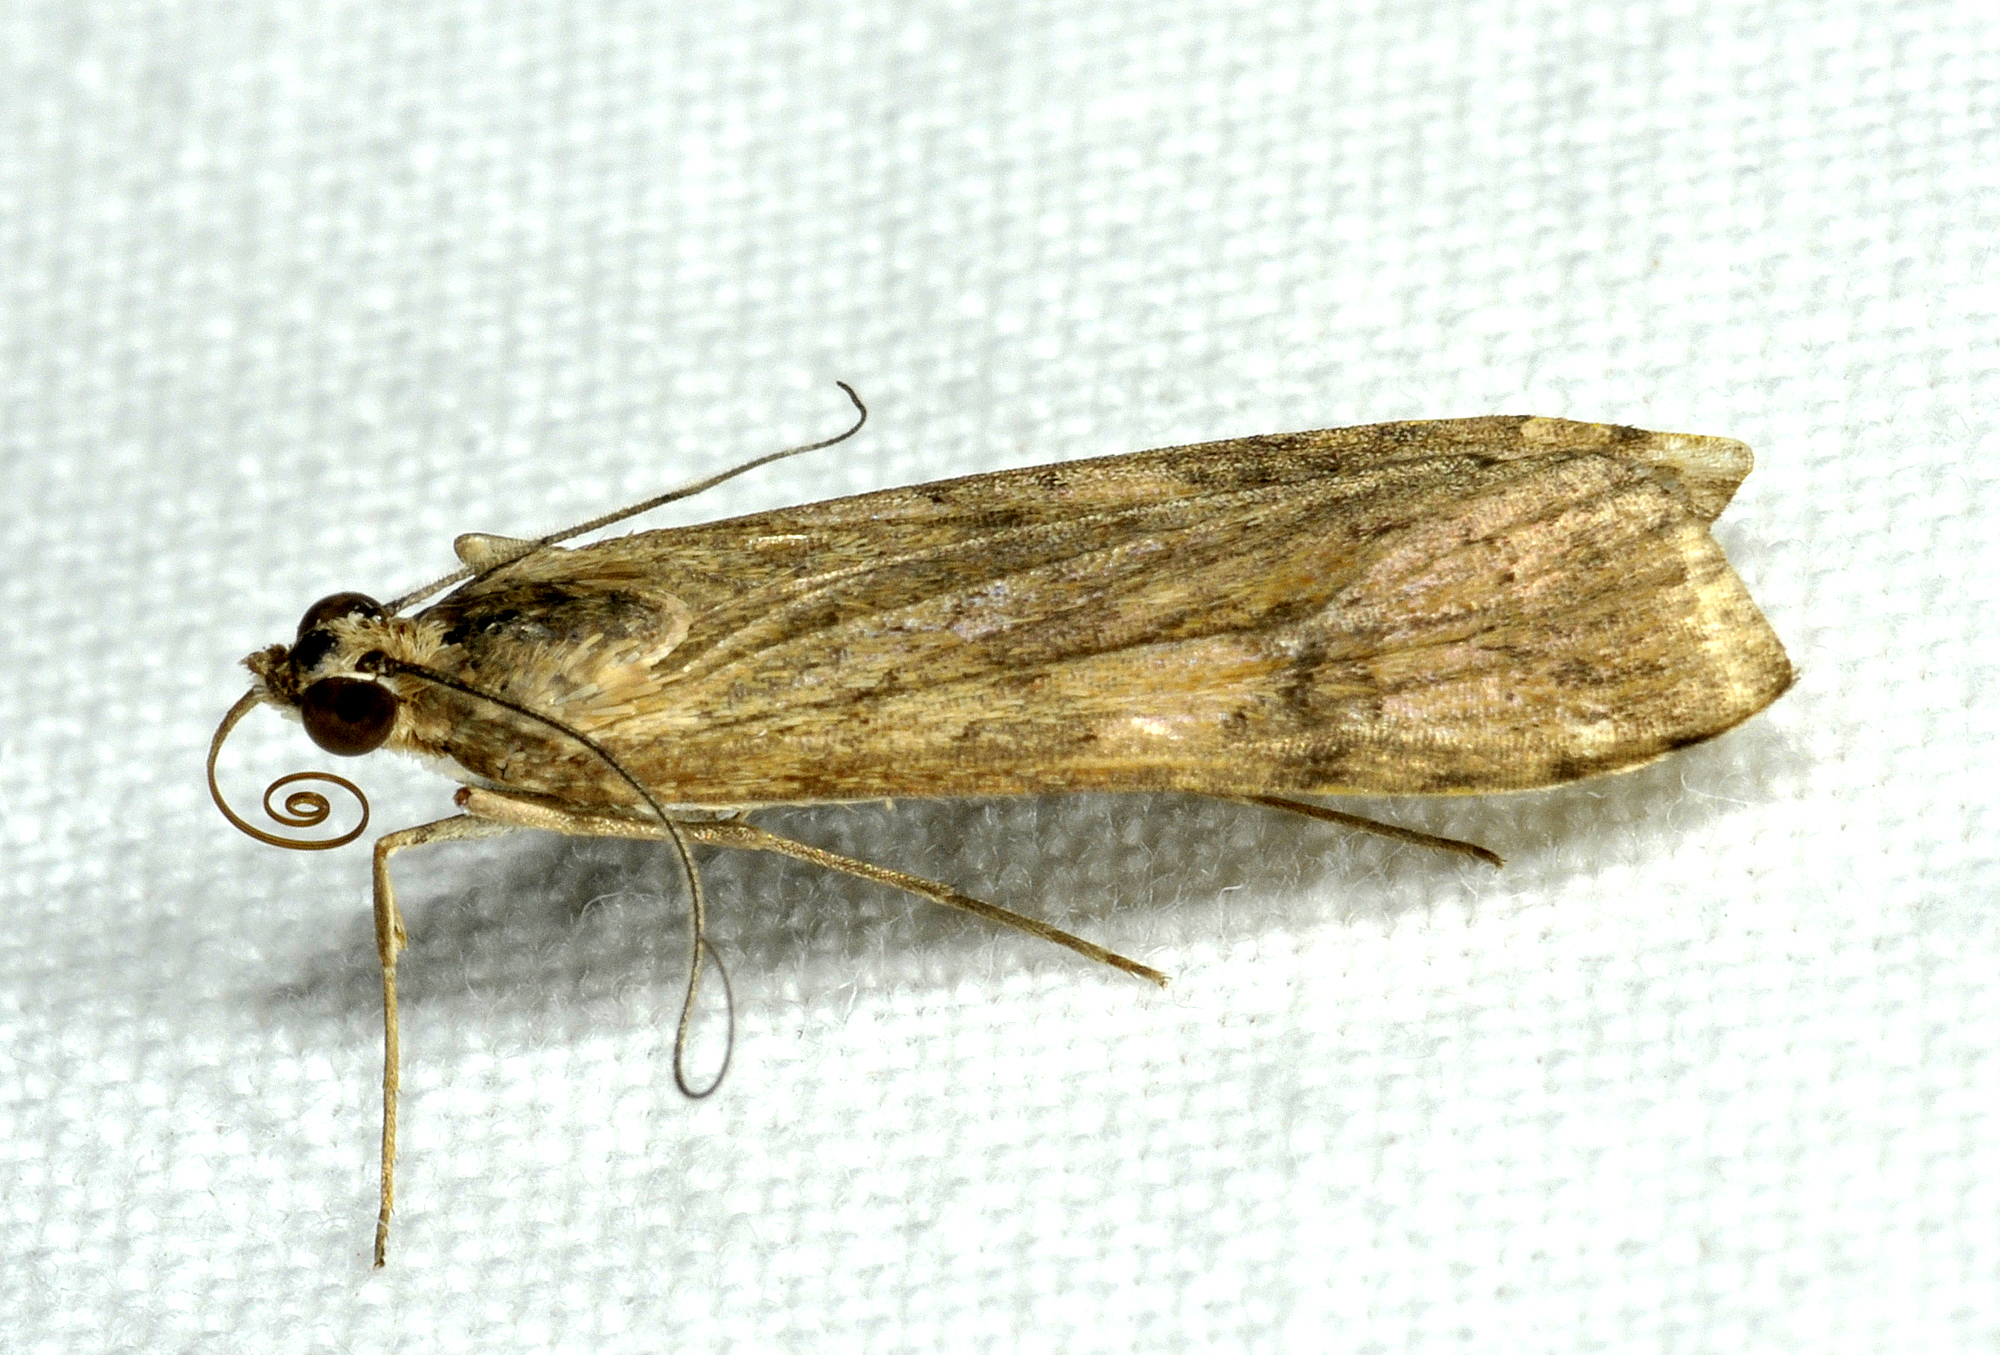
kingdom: Animalia
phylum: Arthropoda
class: Insecta
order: Lepidoptera
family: Crambidae
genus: Nomophila
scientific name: Nomophila noctuella
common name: Rush veneer
